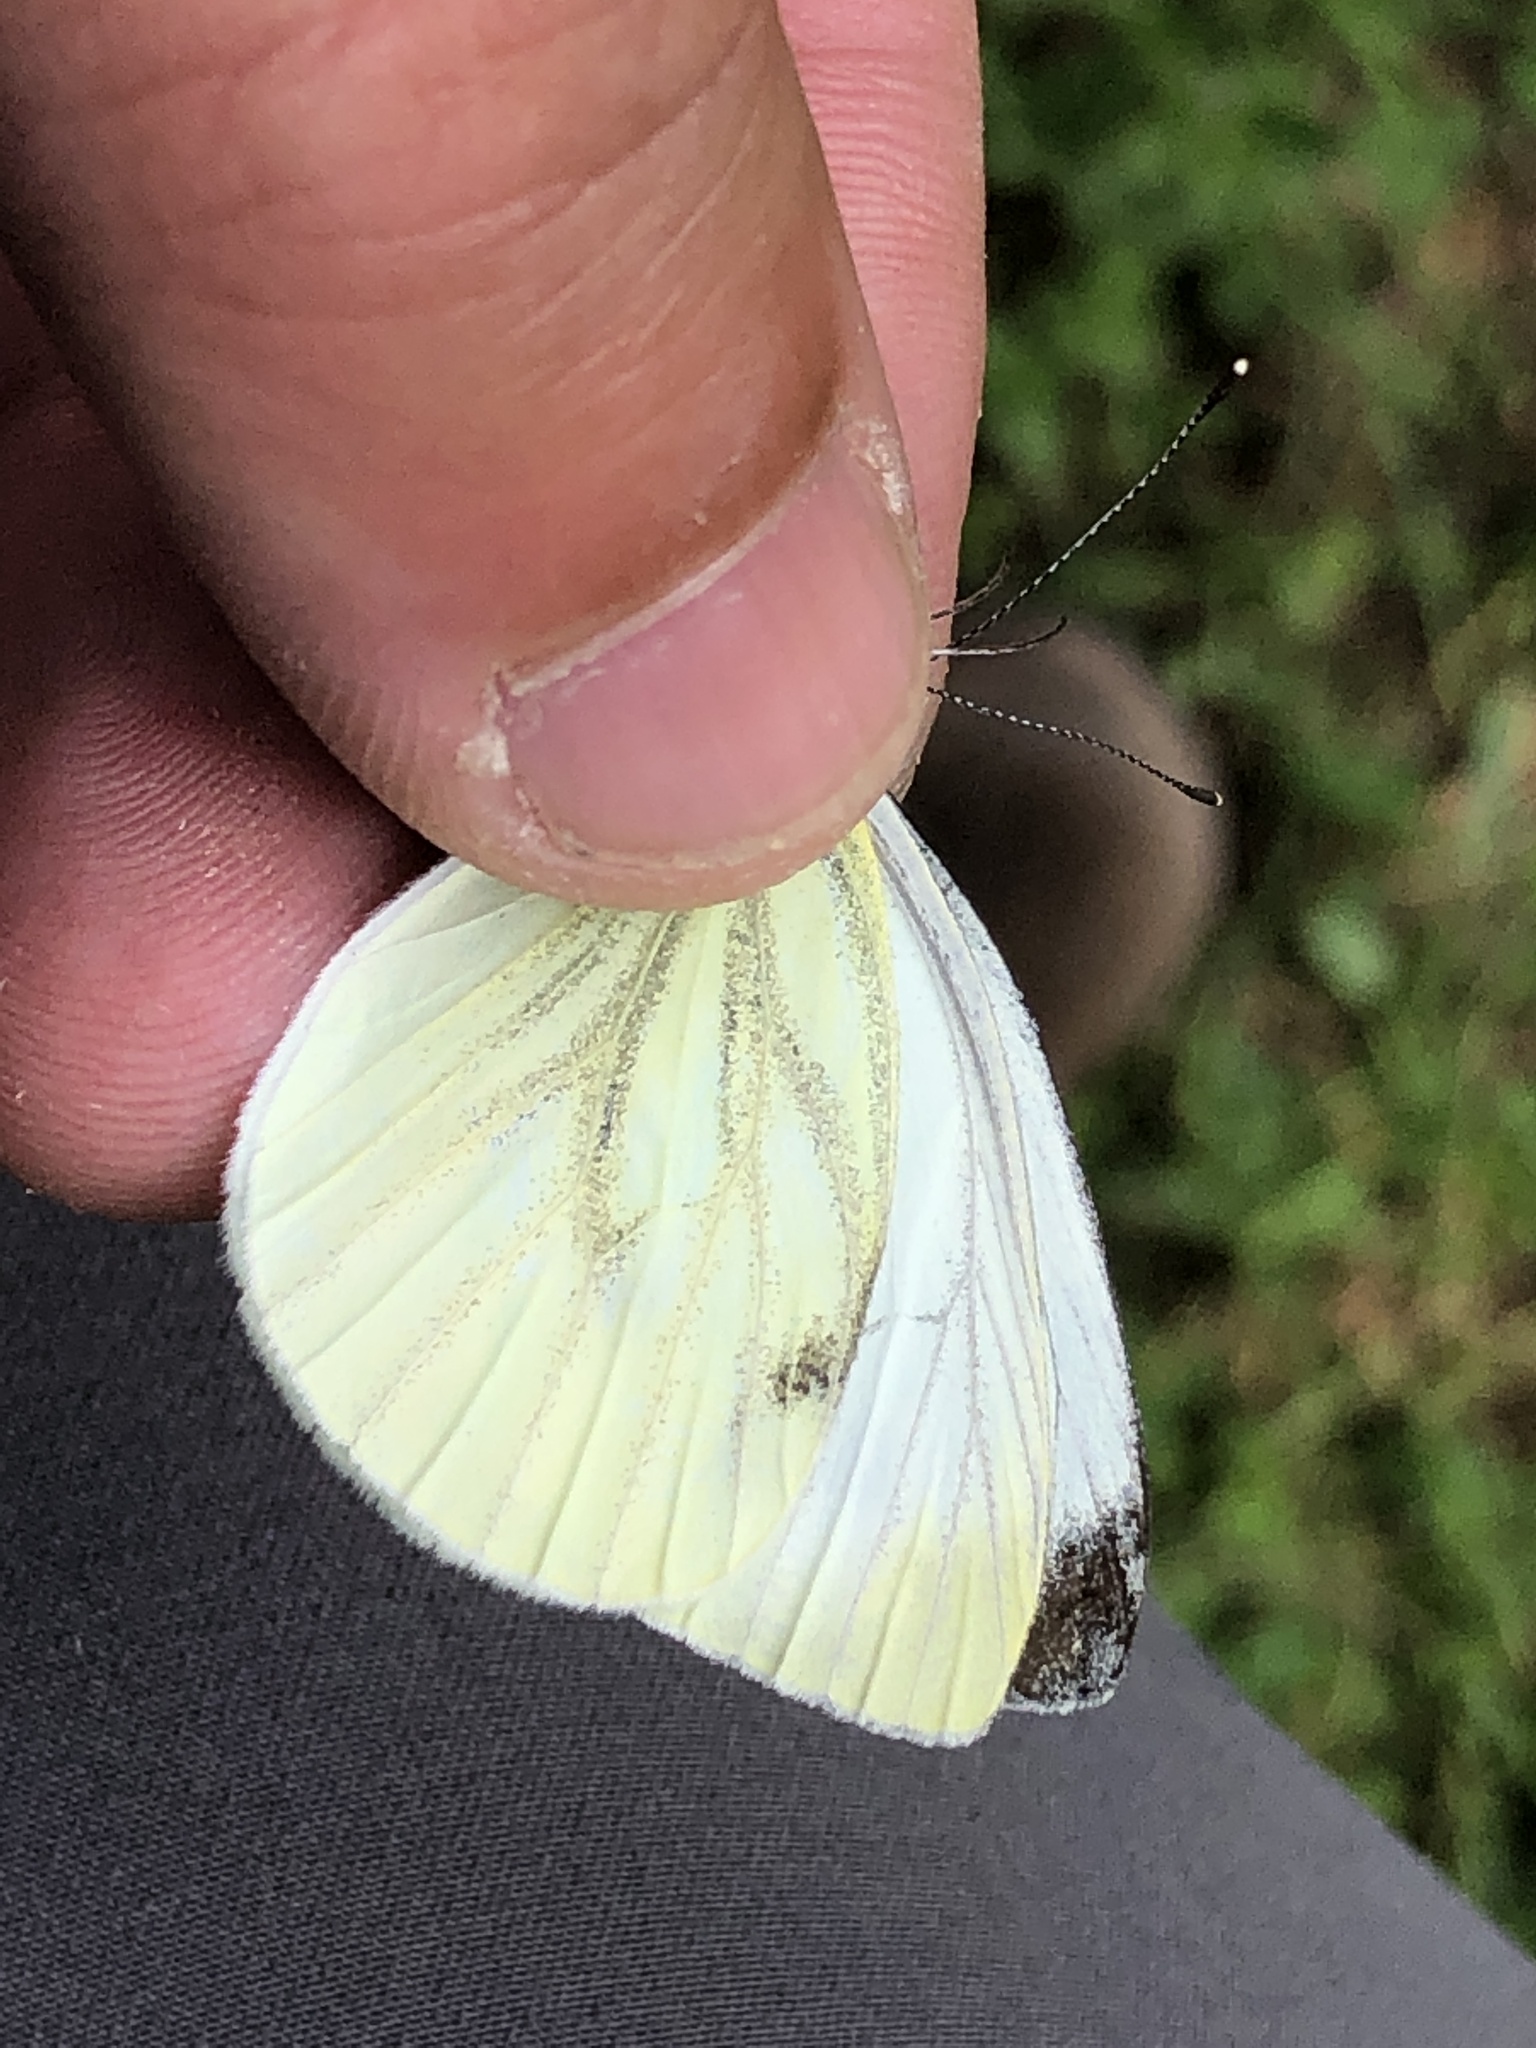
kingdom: Animalia
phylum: Arthropoda
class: Insecta
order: Lepidoptera
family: Pieridae
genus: Pieris
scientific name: Pieris napi
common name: Green-veined white
